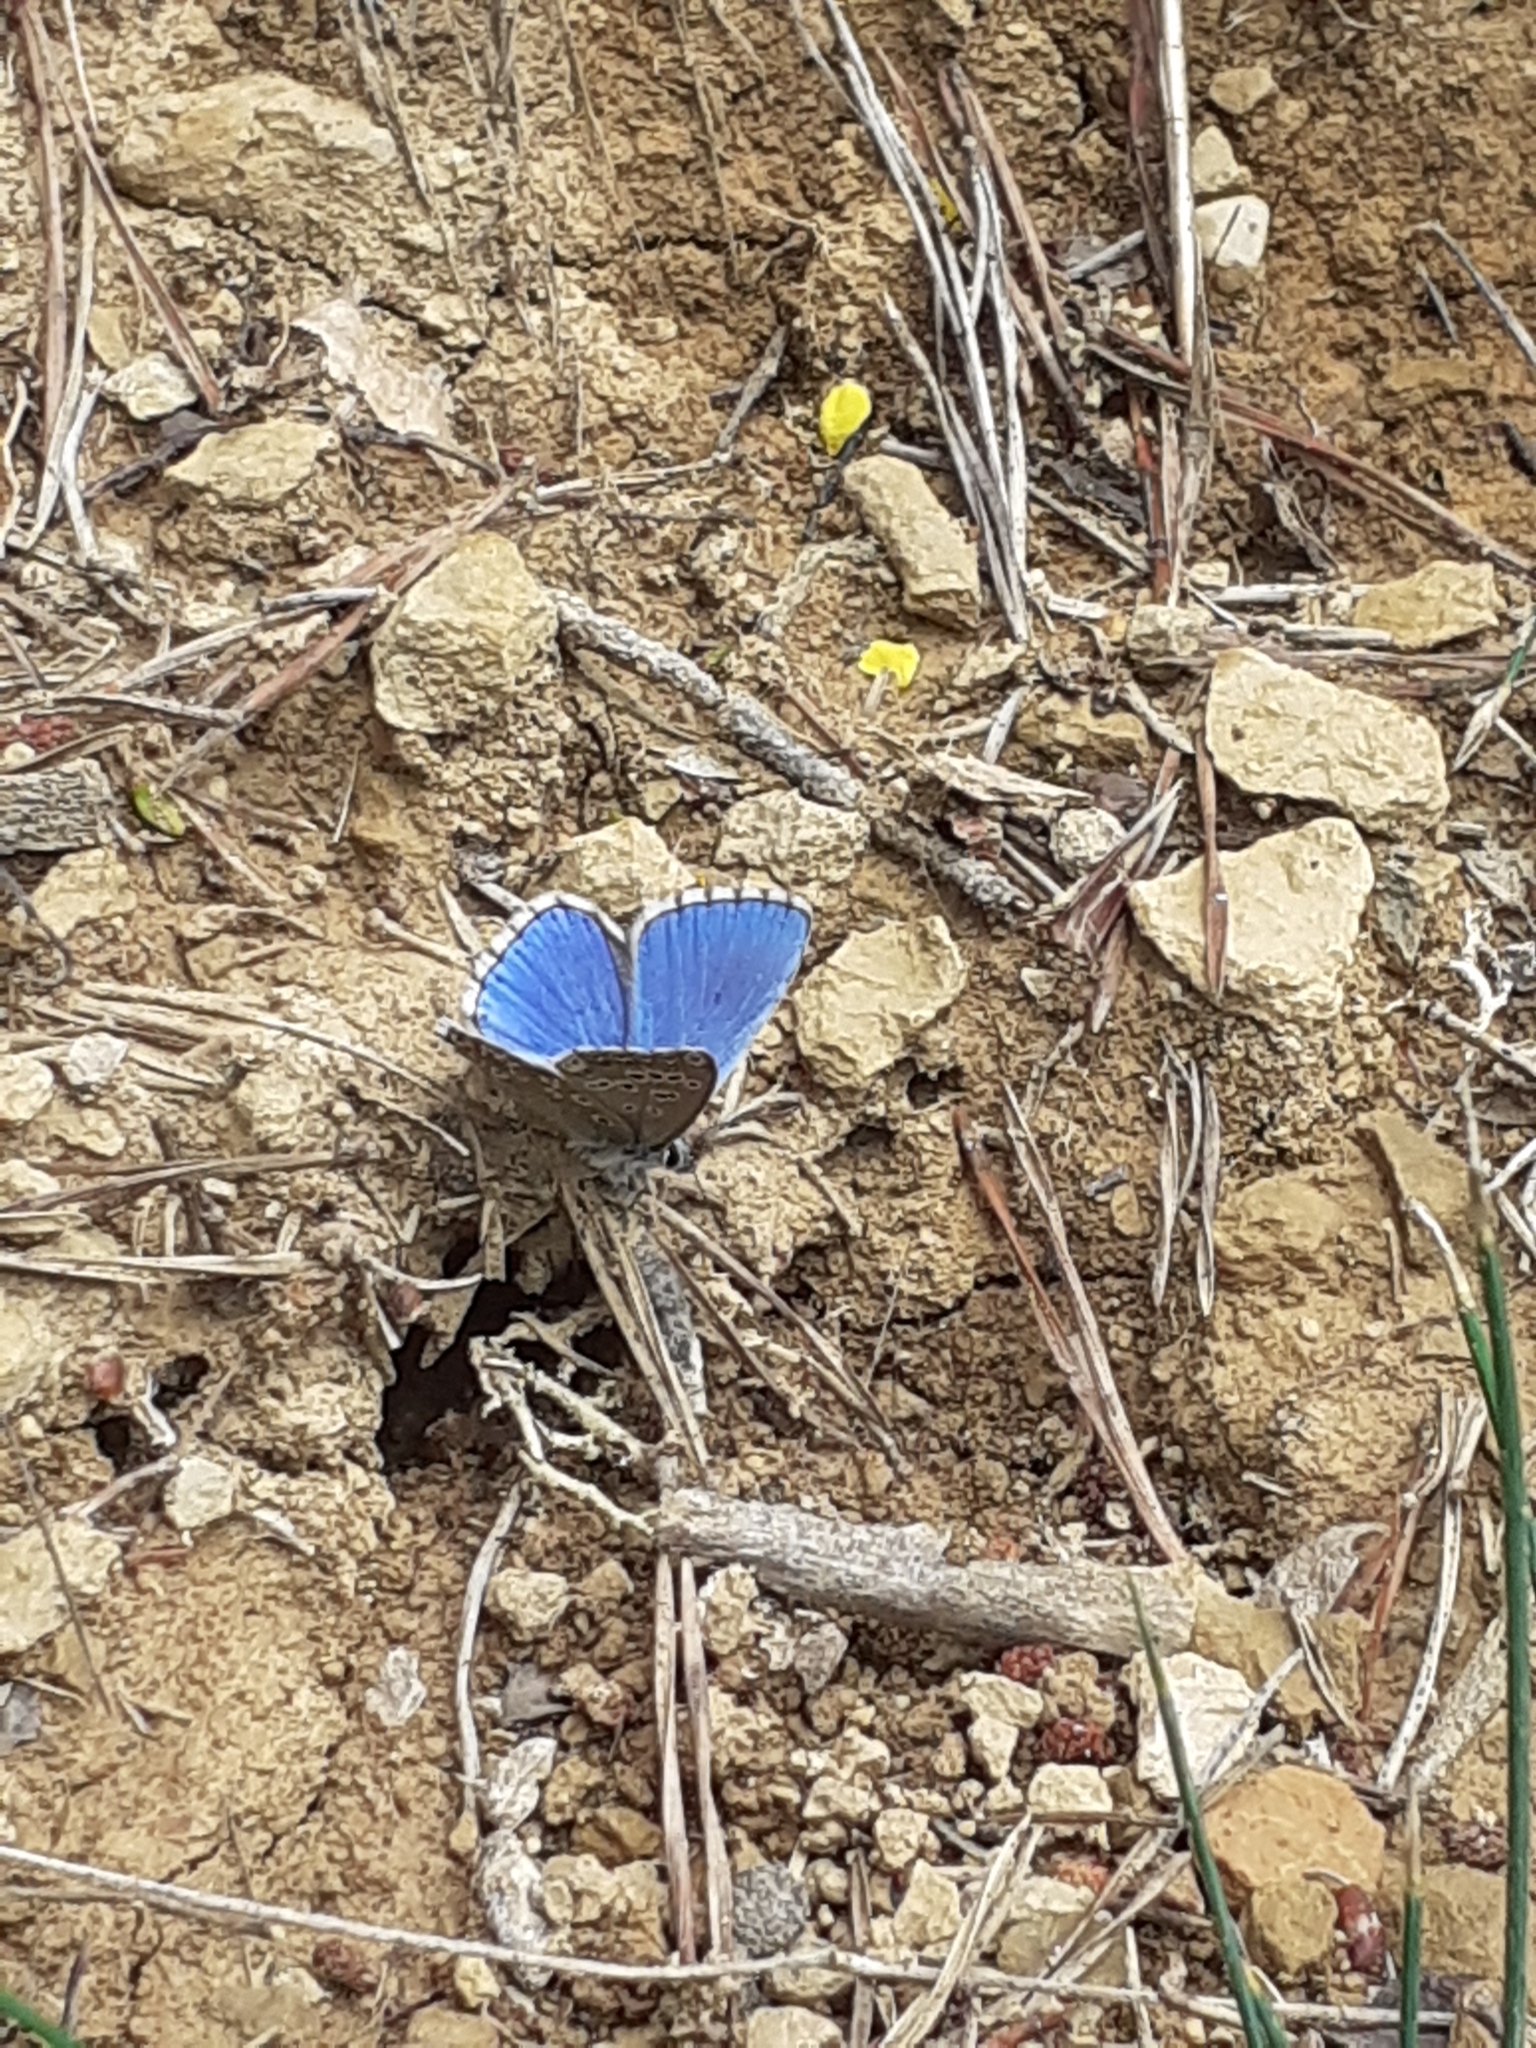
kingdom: Animalia
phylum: Arthropoda
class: Insecta
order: Lepidoptera
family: Lycaenidae
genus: Lysandra
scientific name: Lysandra bellargus
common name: Adonis blue
